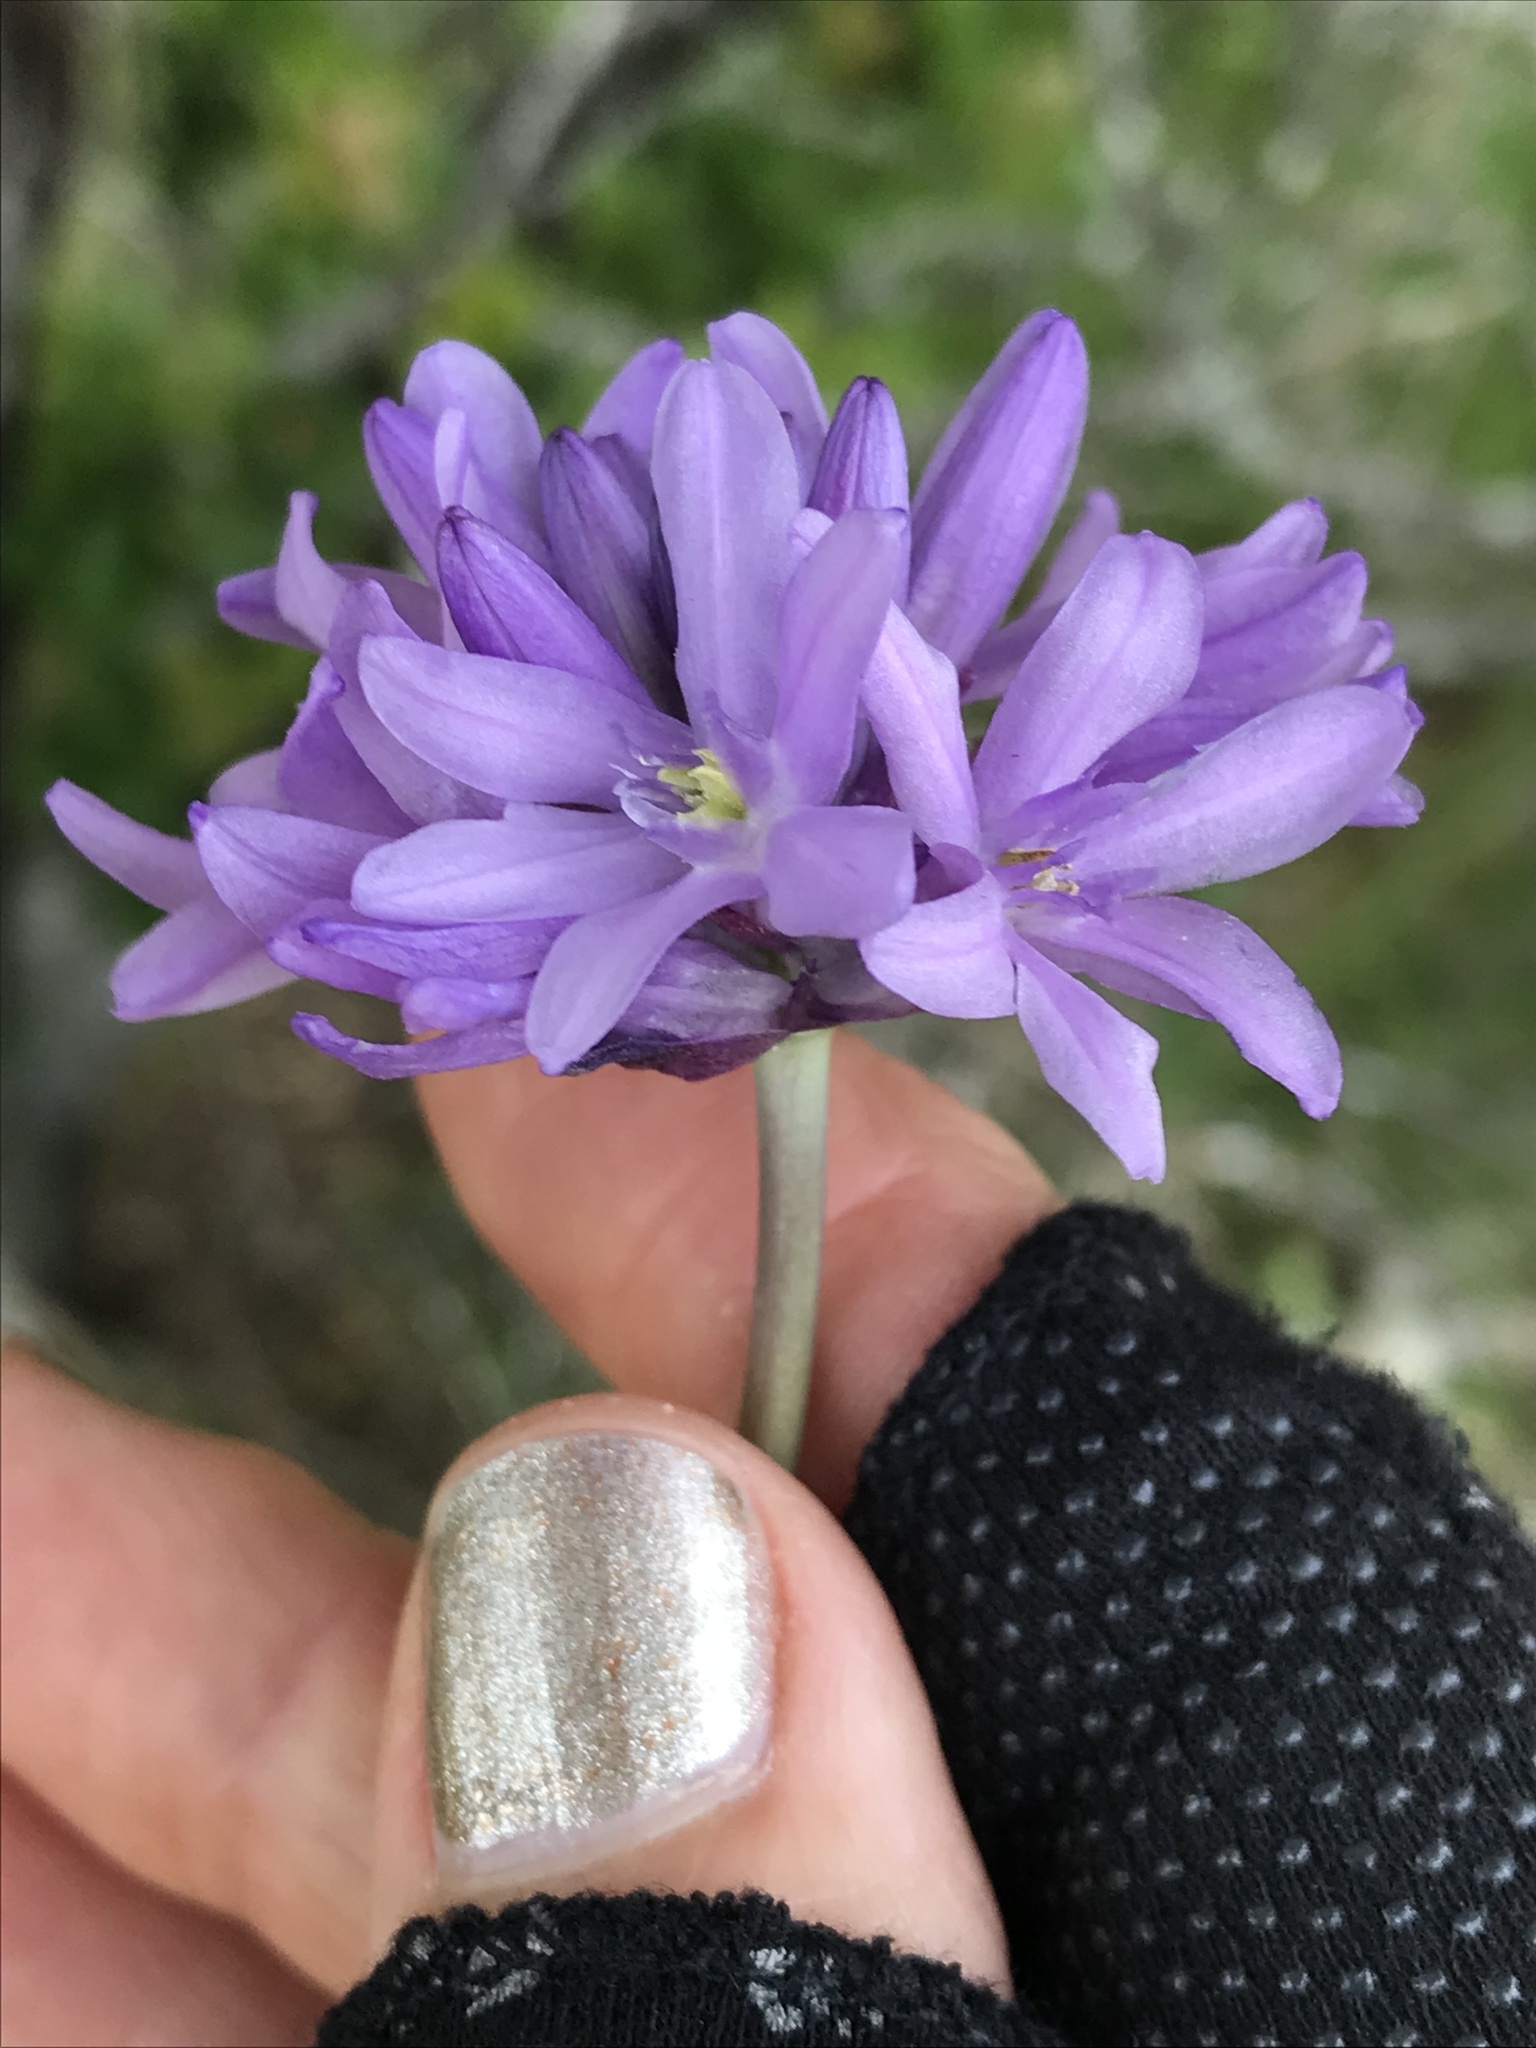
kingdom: Plantae
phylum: Tracheophyta
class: Liliopsida
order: Asparagales
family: Asparagaceae
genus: Dichelostemma
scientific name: Dichelostemma congestum
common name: Fork-tooth ookow
